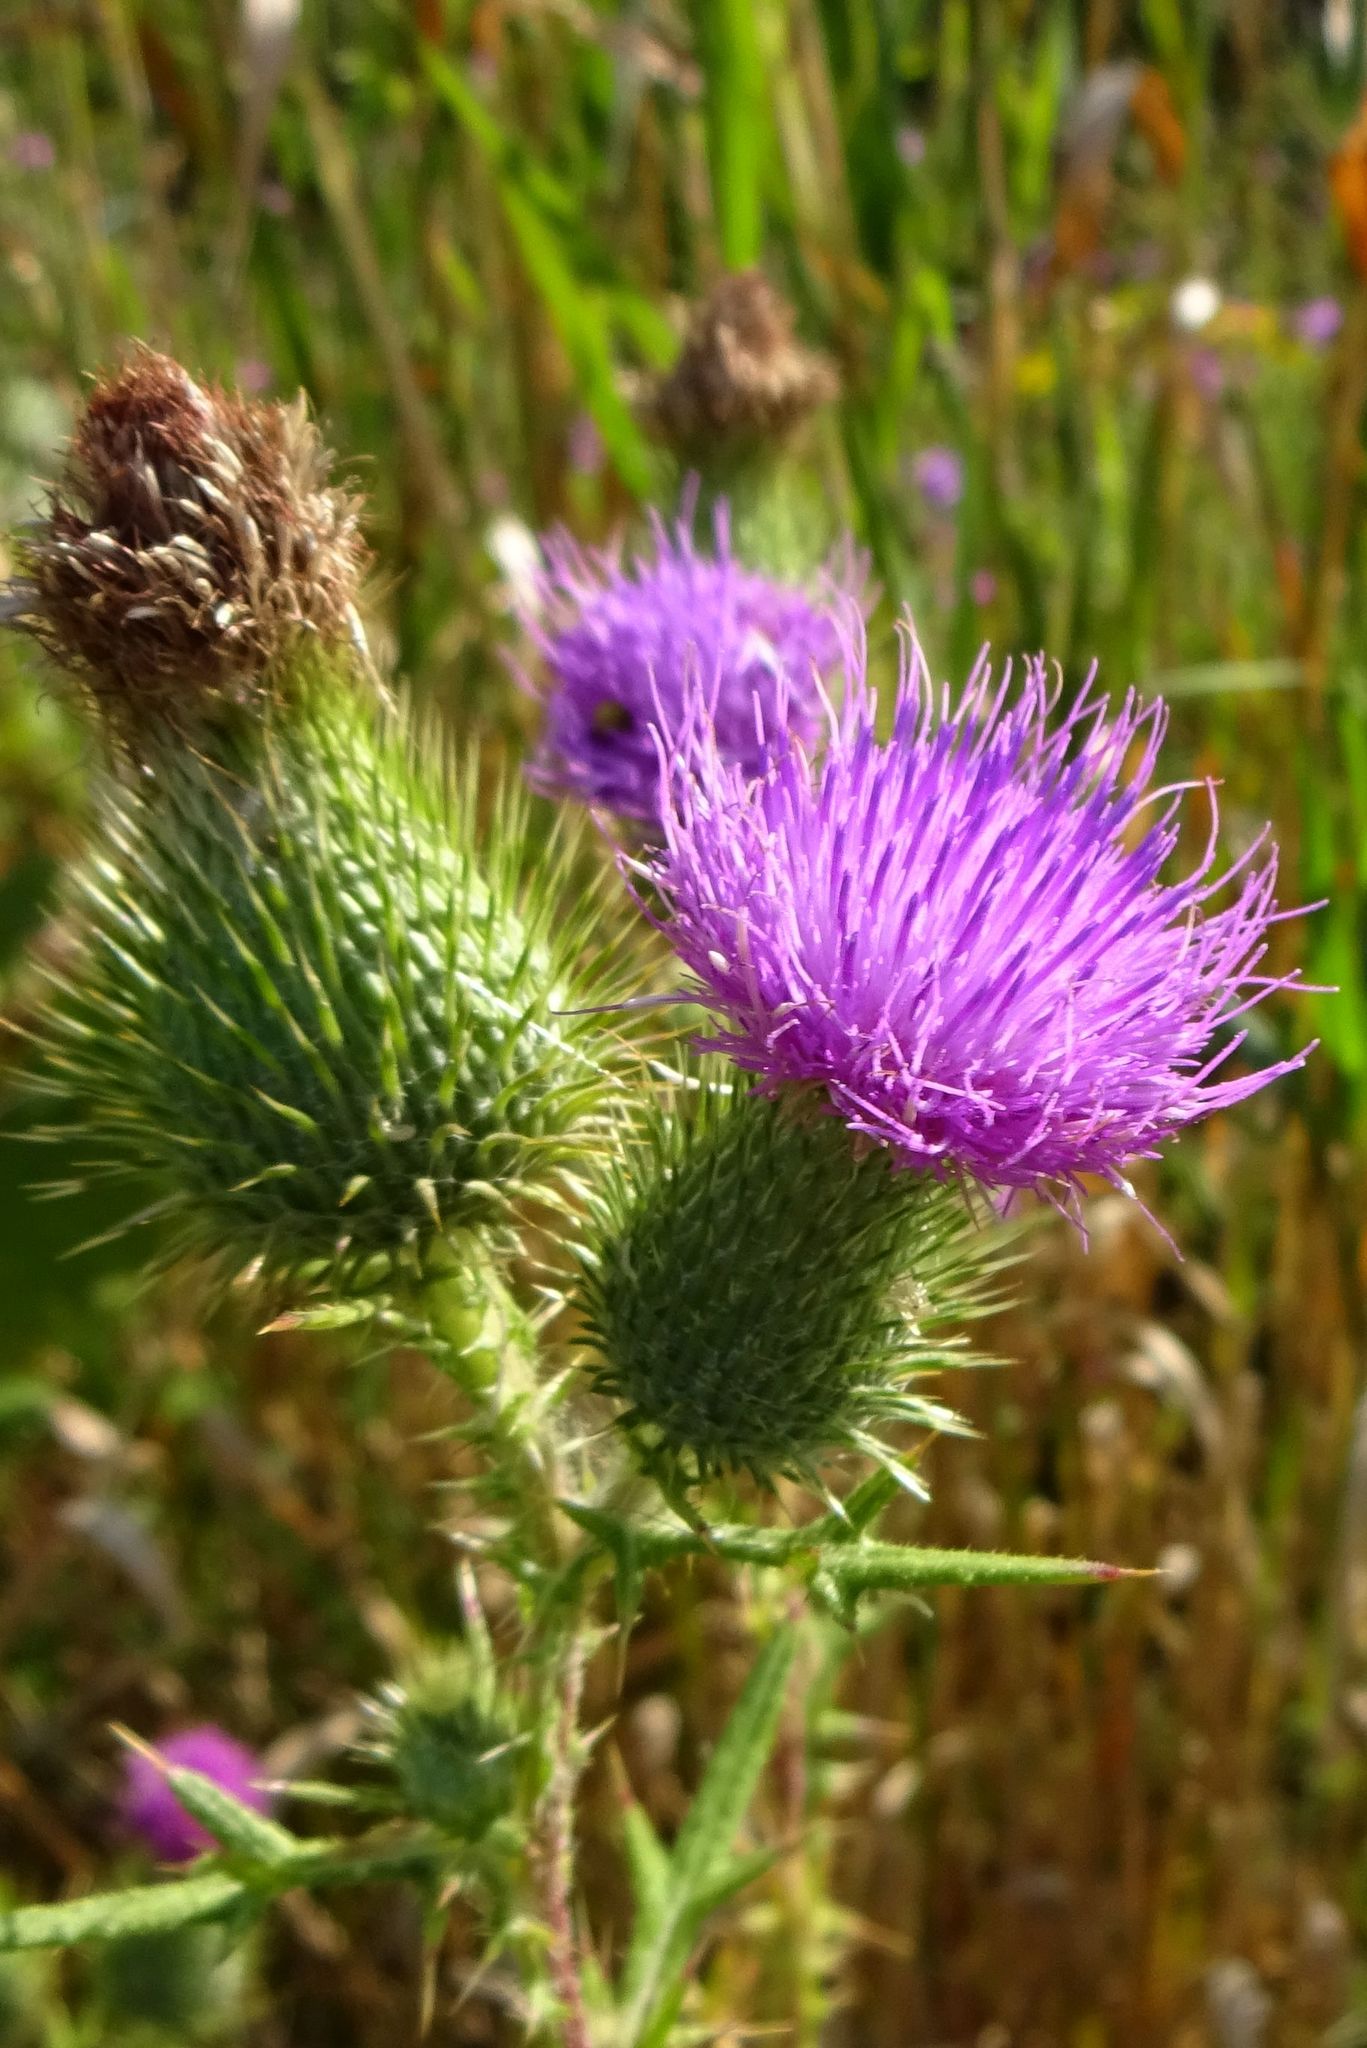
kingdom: Plantae
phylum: Tracheophyta
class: Magnoliopsida
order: Asterales
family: Asteraceae
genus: Cirsium
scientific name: Cirsium vulgare
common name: Bull thistle
